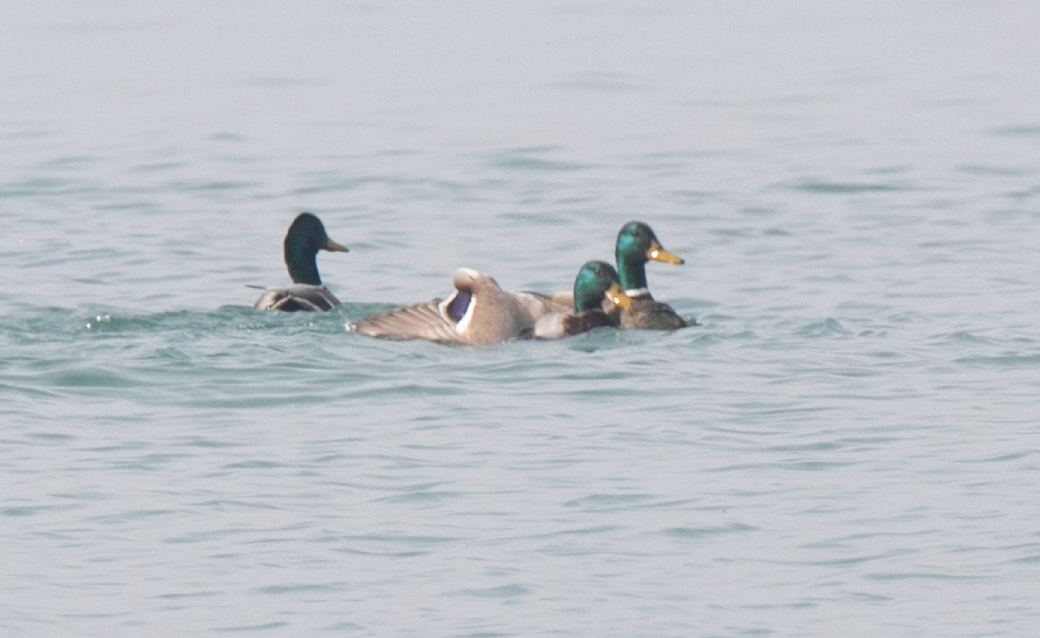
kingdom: Animalia
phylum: Chordata
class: Aves
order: Anseriformes
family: Anatidae
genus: Anas
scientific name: Anas platyrhynchos
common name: Mallard
